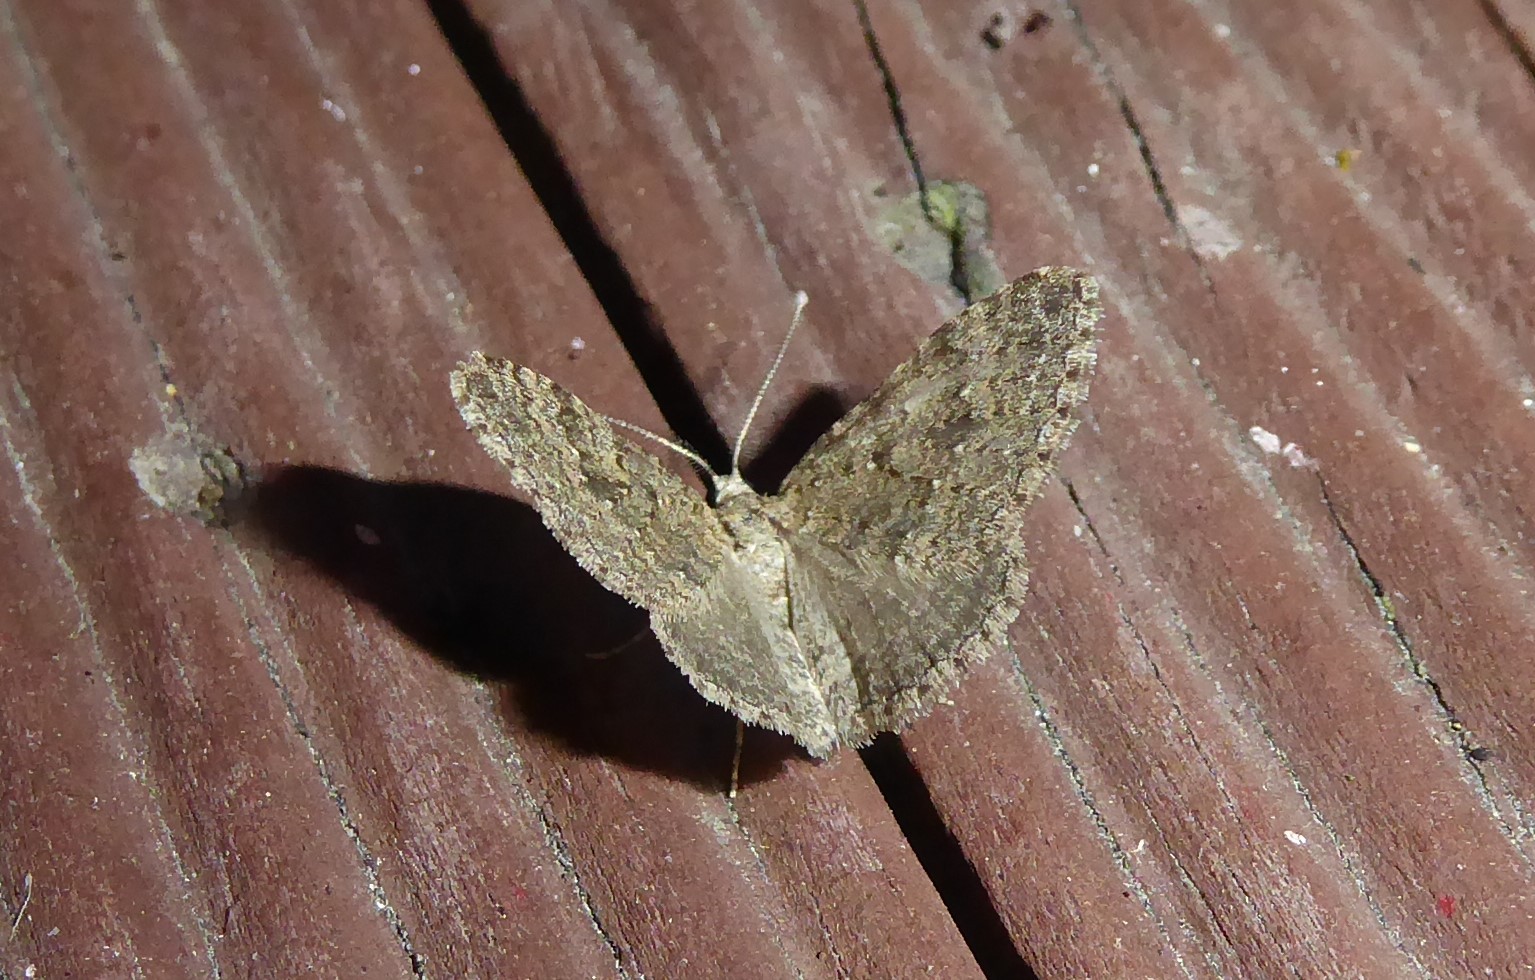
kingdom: Animalia
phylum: Arthropoda
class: Insecta
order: Lepidoptera
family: Geometridae
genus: Helastia
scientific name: Helastia corcularia
